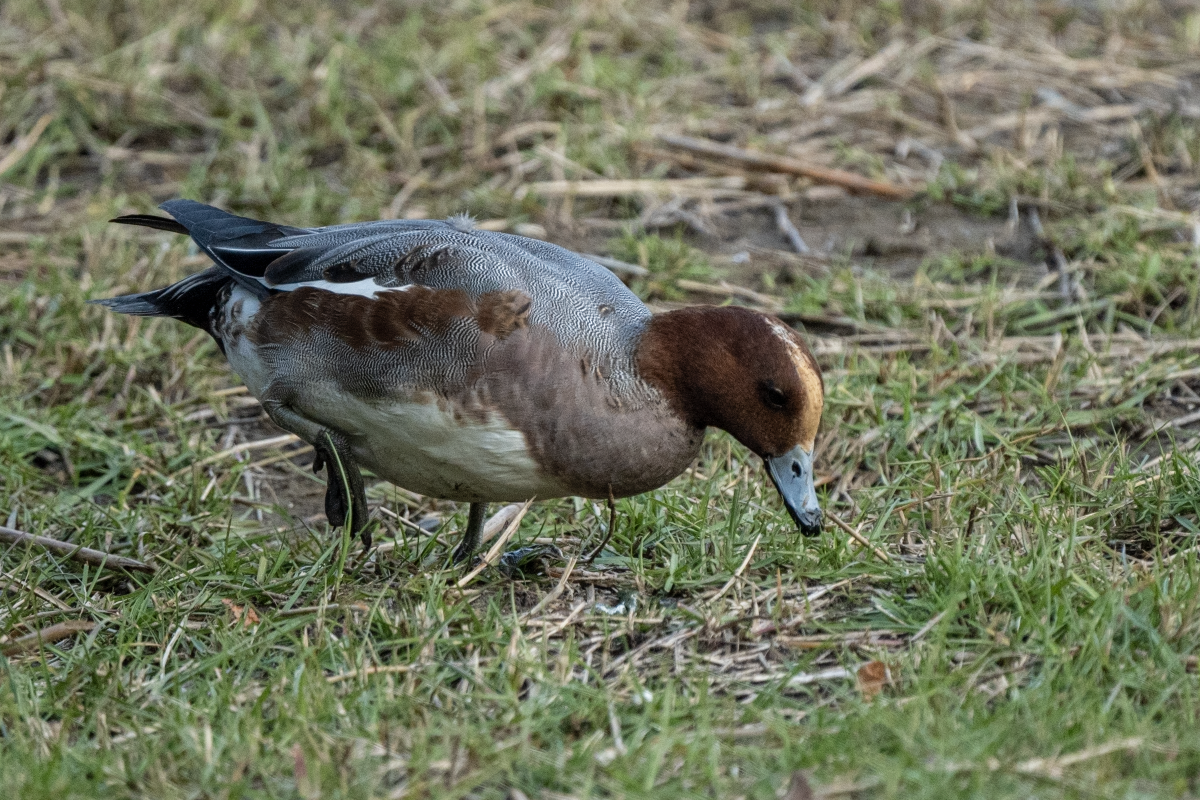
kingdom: Animalia
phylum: Chordata
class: Aves
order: Anseriformes
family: Anatidae
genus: Mareca
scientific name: Mareca penelope
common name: Eurasian wigeon
